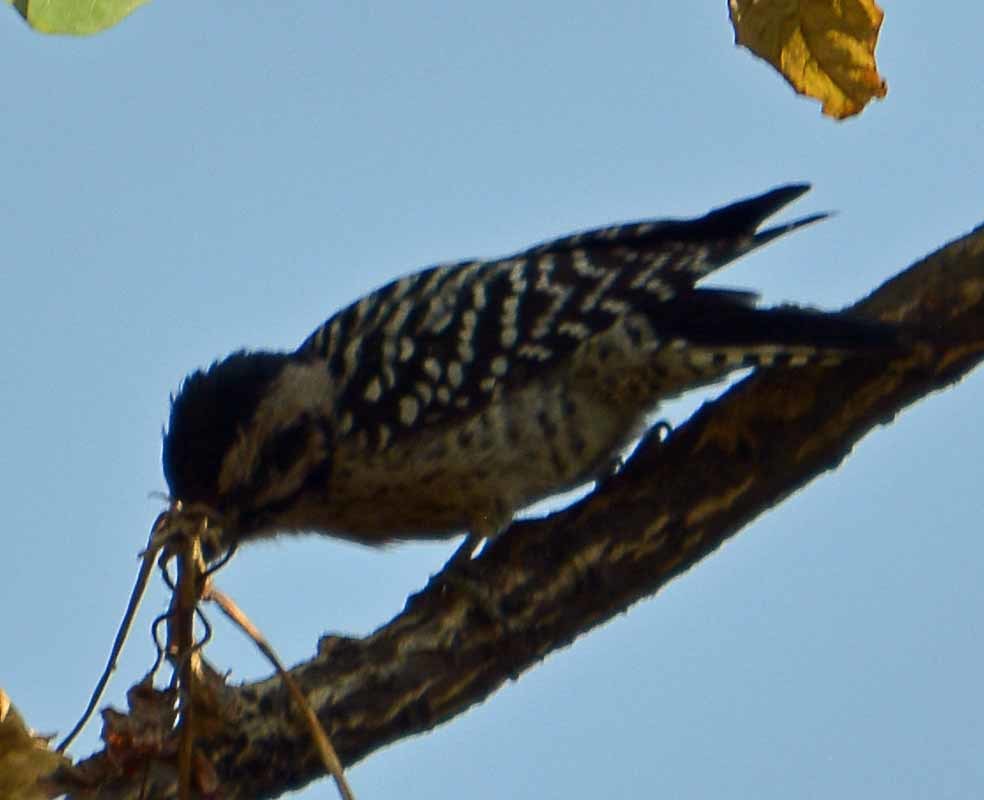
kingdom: Animalia
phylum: Chordata
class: Aves
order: Piciformes
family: Picidae
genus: Dryobates
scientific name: Dryobates scalaris
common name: Ladder-backed woodpecker
